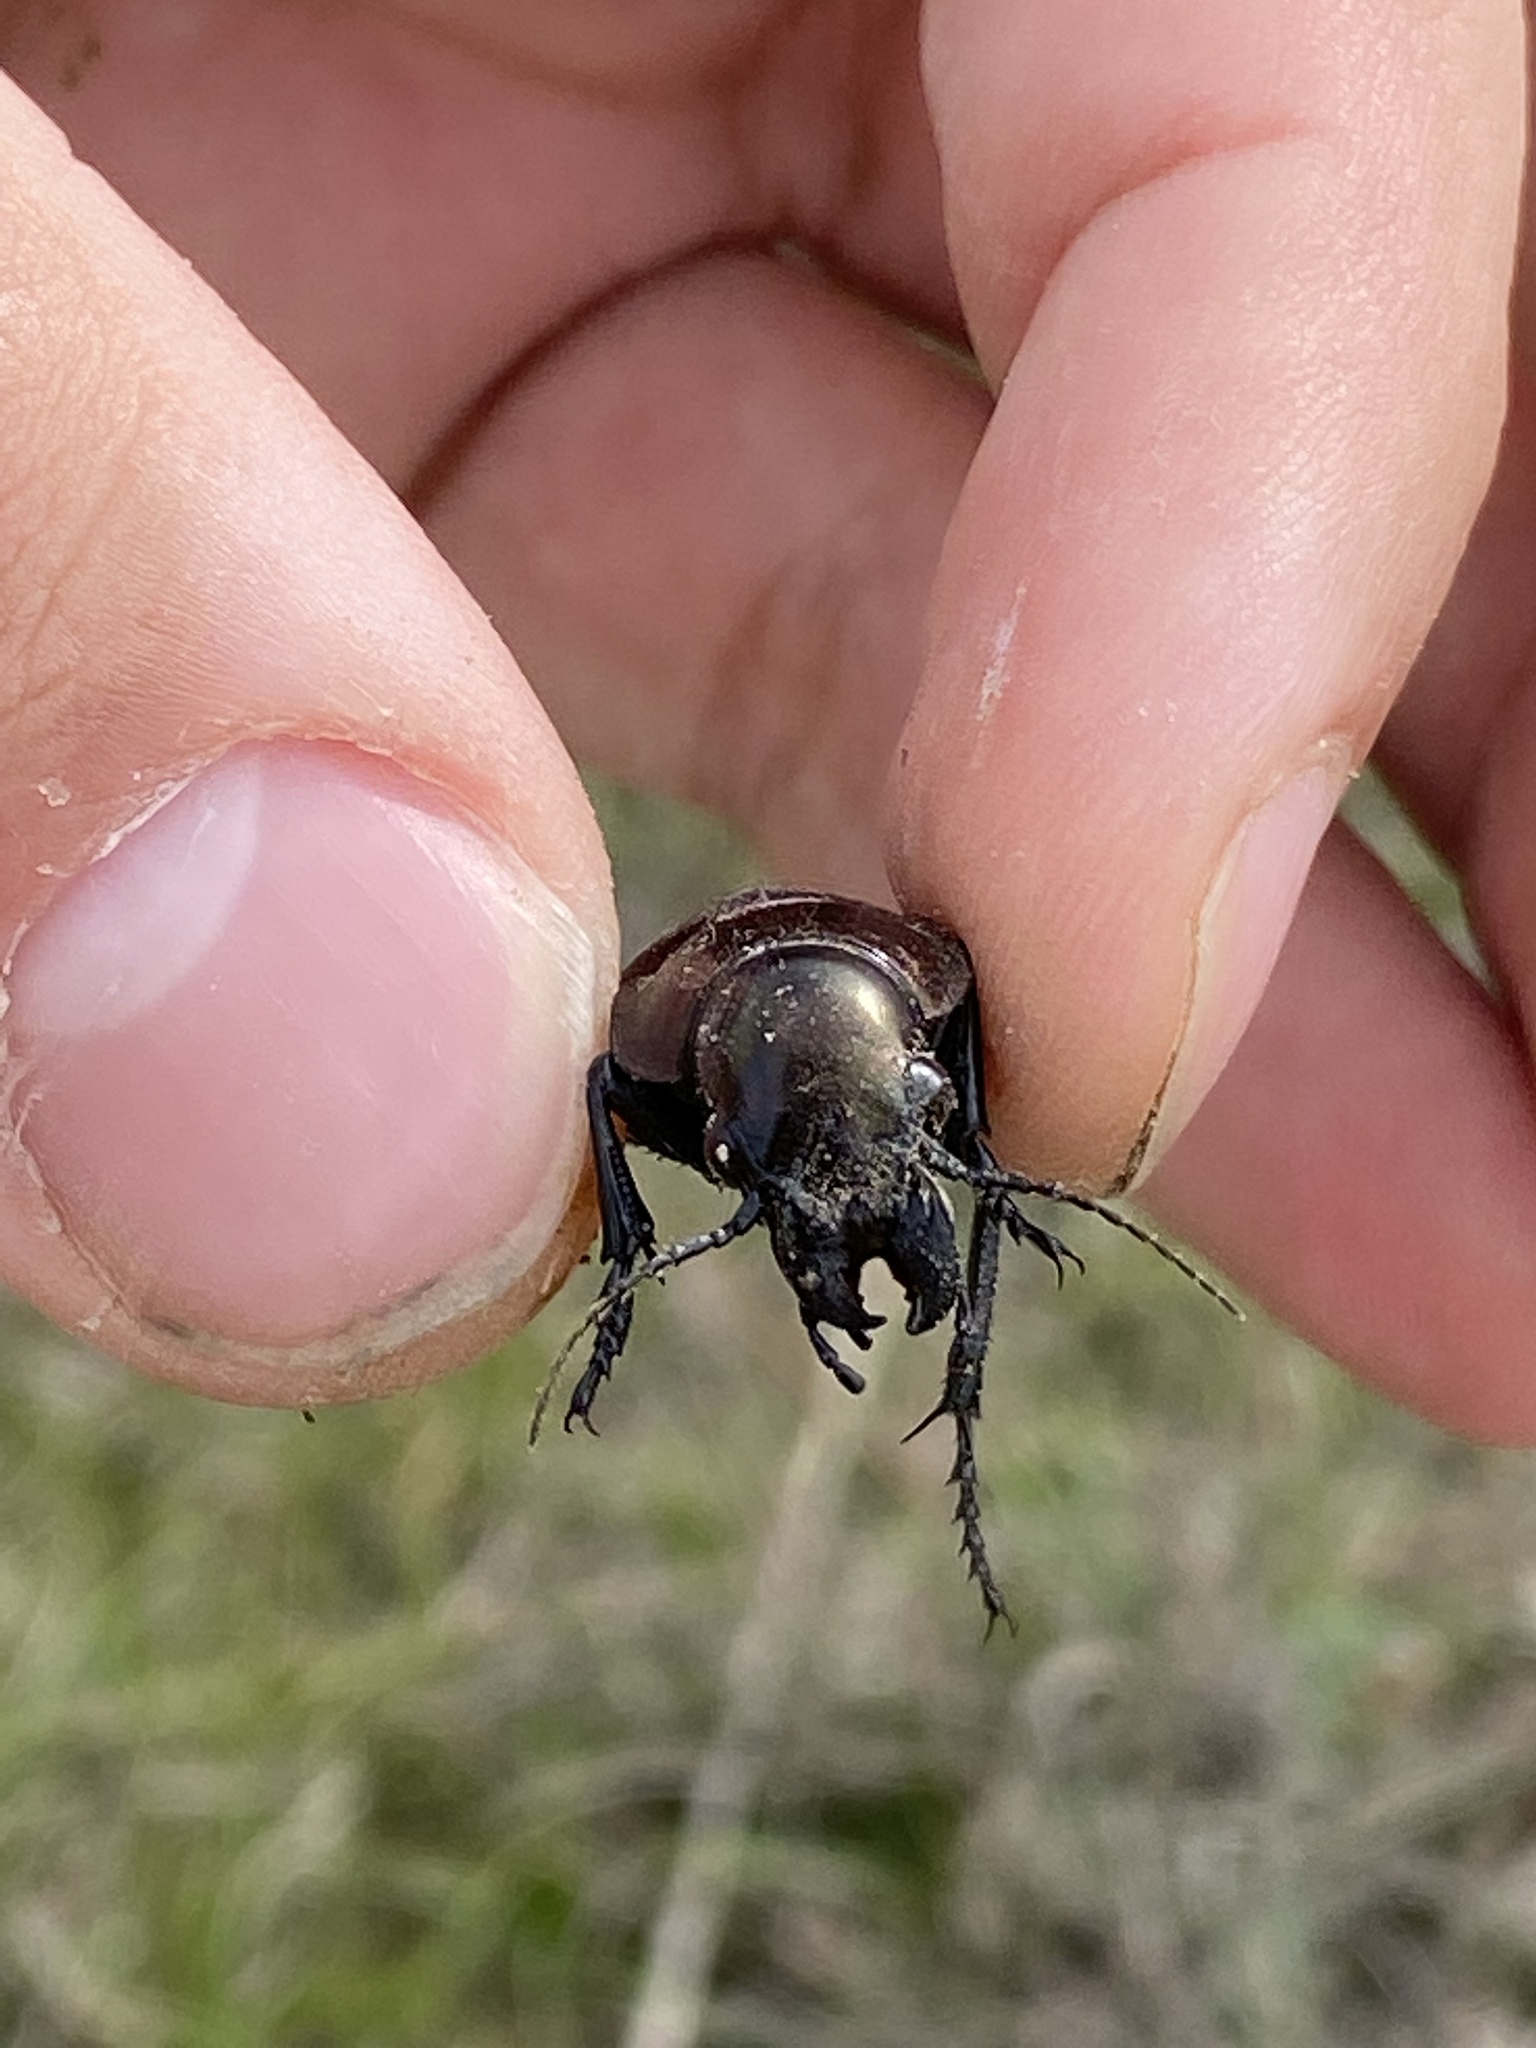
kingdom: Animalia
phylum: Arthropoda
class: Insecta
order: Coleoptera
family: Carabidae
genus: Calosoma
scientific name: Calosoma elegans
